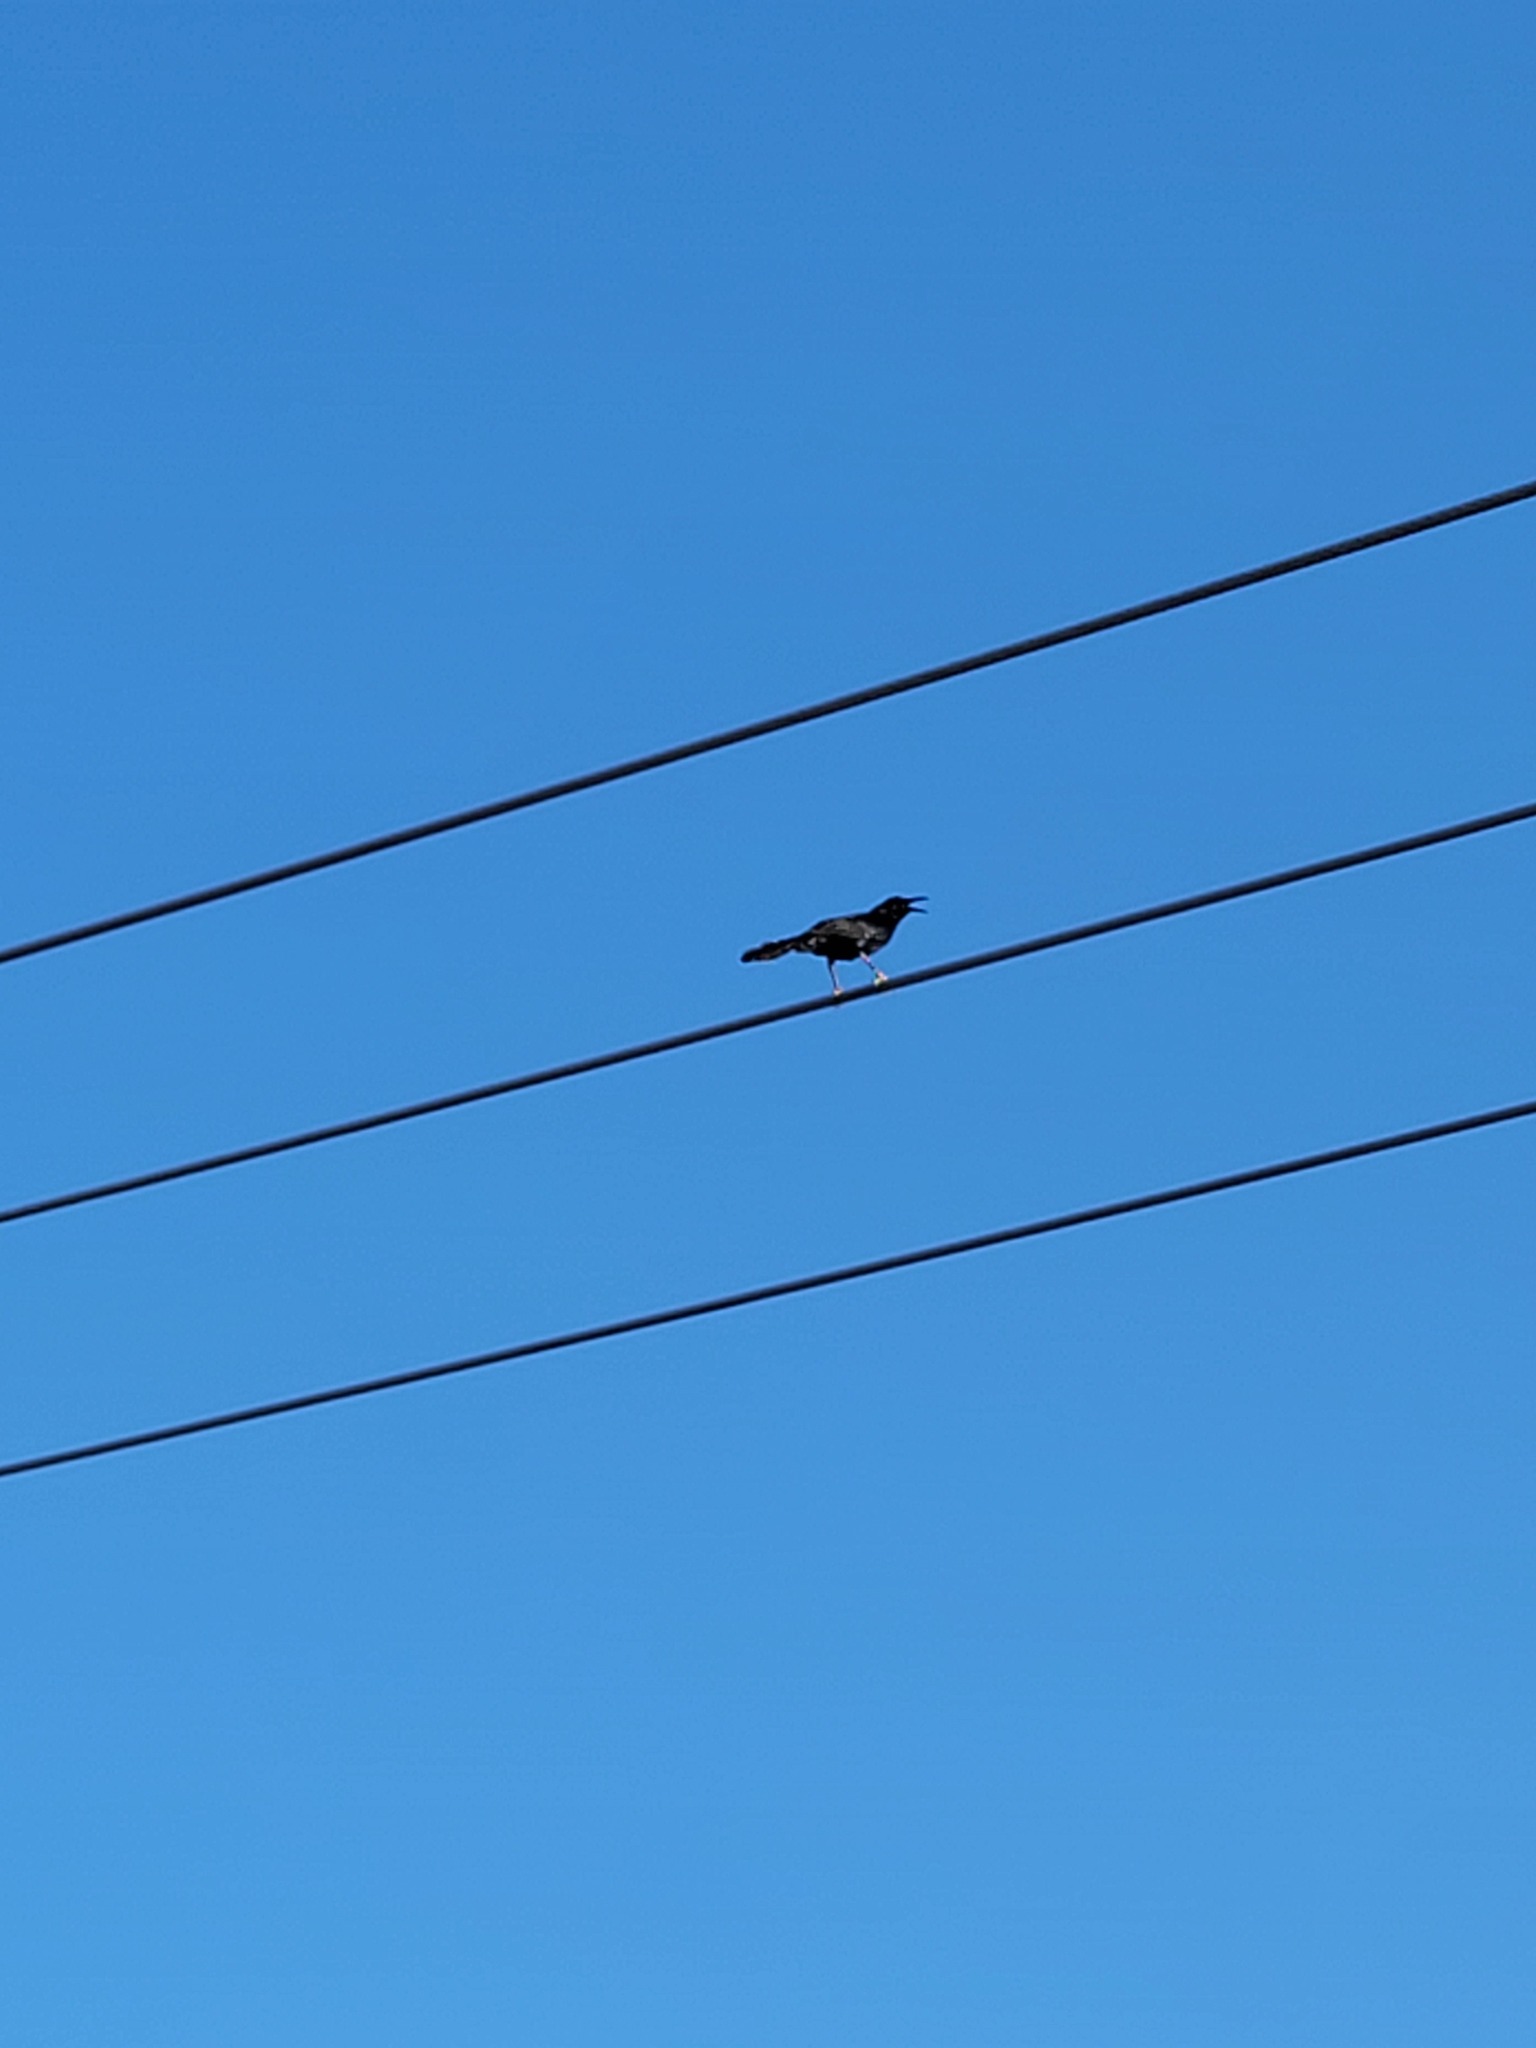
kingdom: Animalia
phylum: Chordata
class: Aves
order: Passeriformes
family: Icteridae
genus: Quiscalus
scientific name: Quiscalus mexicanus
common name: Great-tailed grackle
